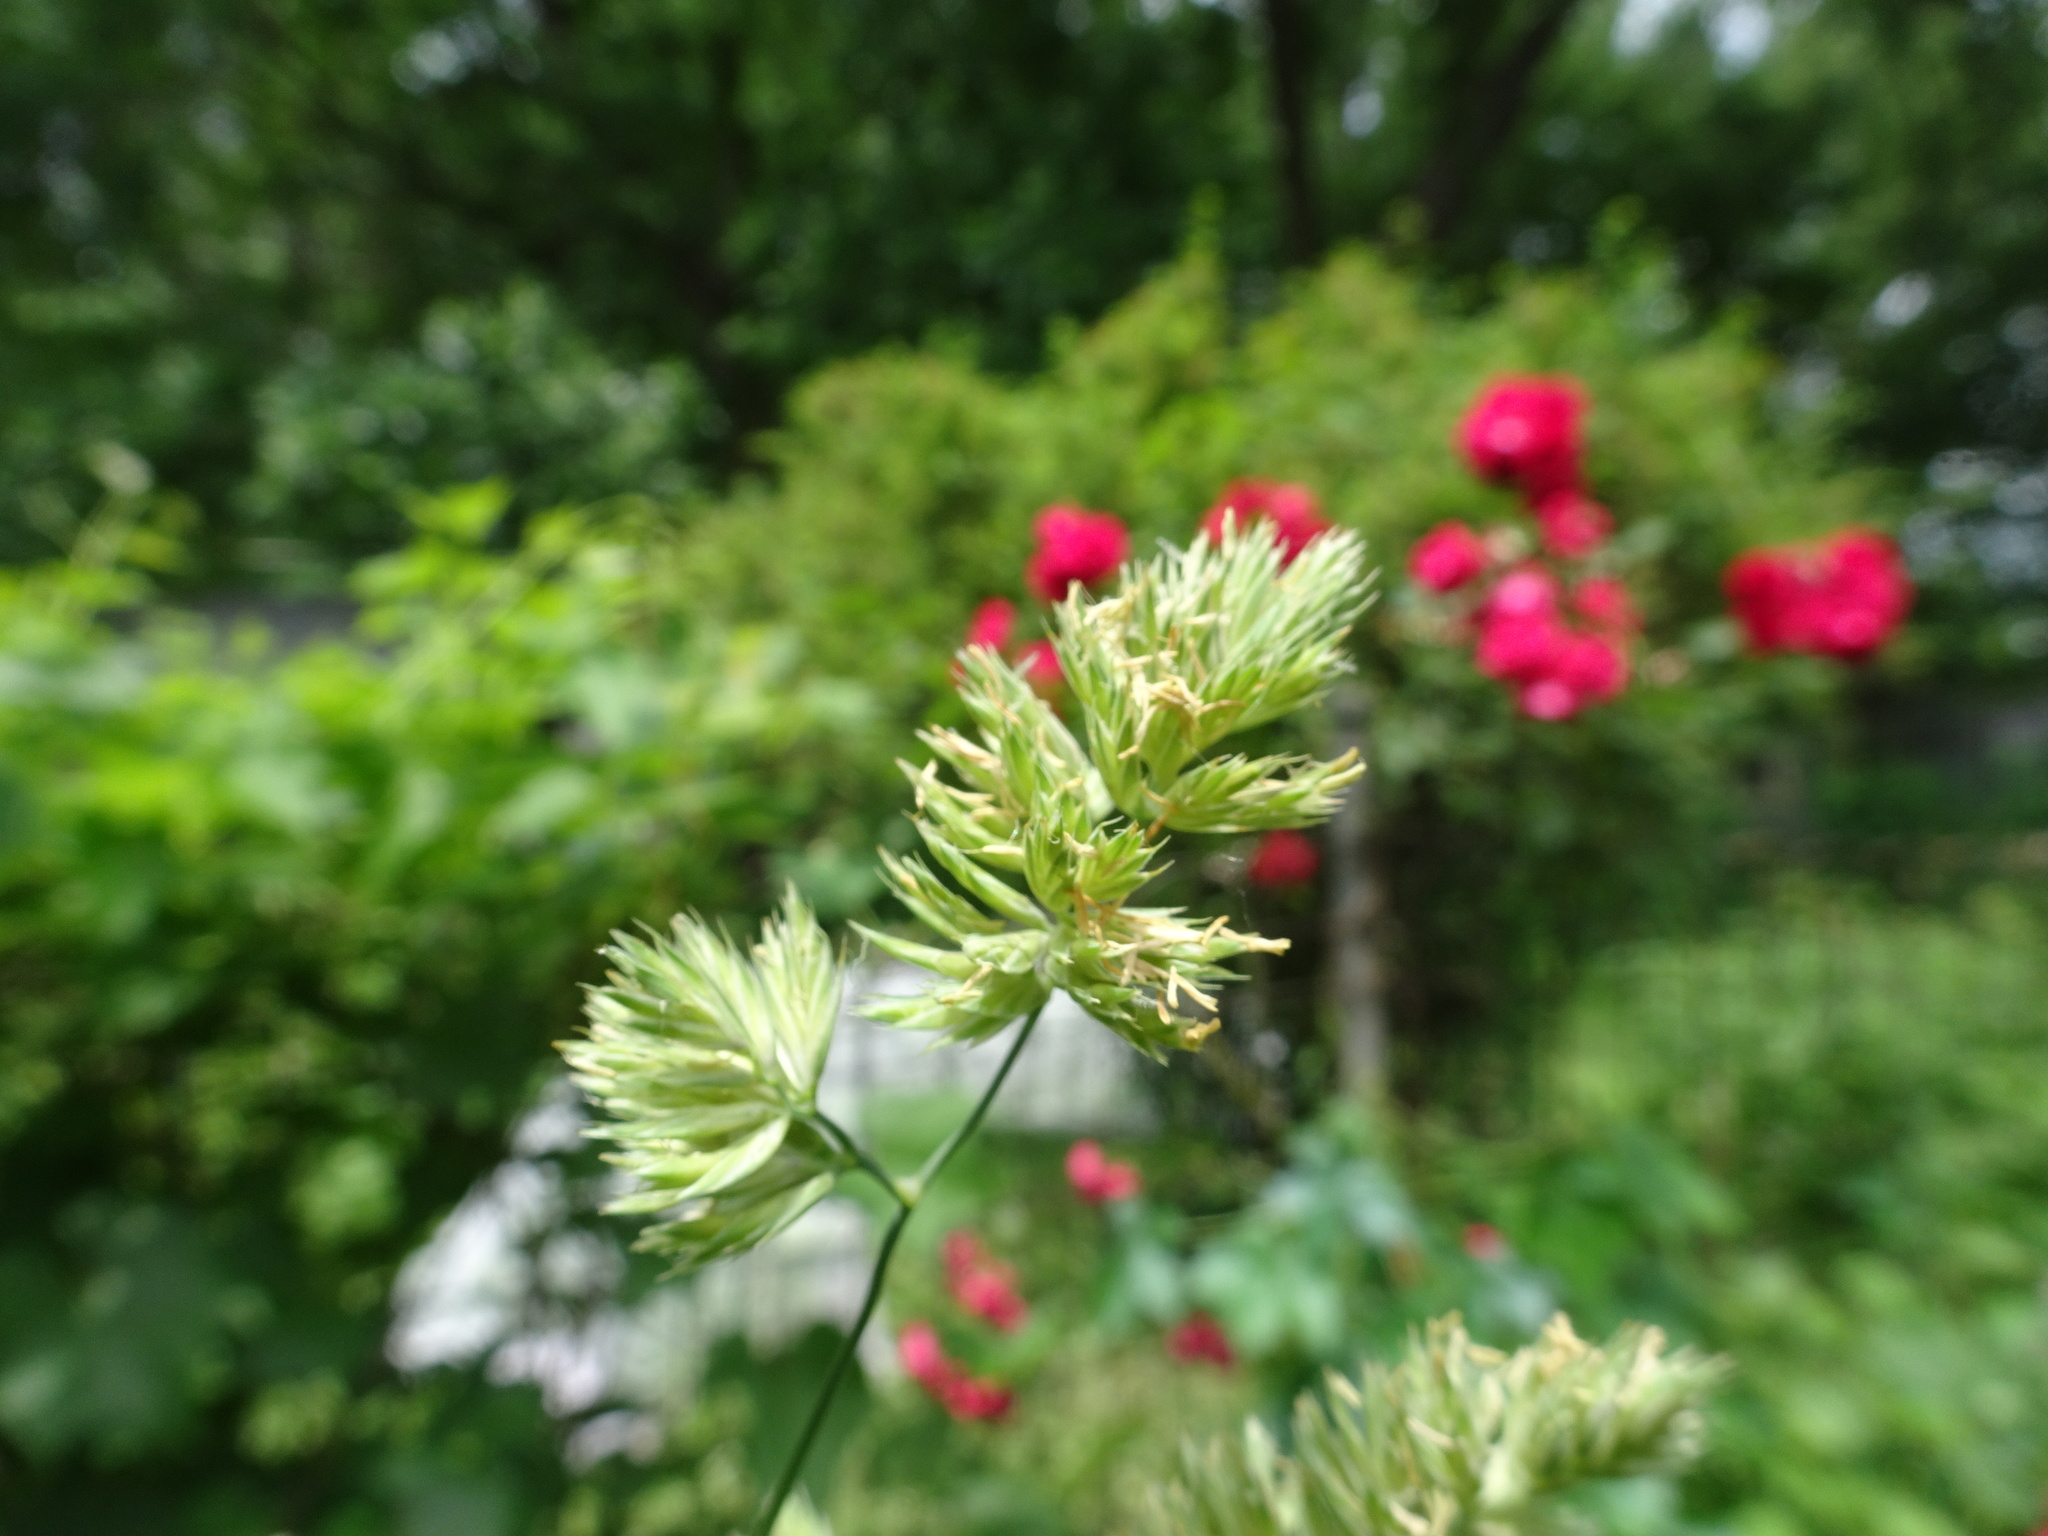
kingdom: Plantae
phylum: Tracheophyta
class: Liliopsida
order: Poales
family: Poaceae
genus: Dactylis
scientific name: Dactylis glomerata
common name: Orchardgrass
